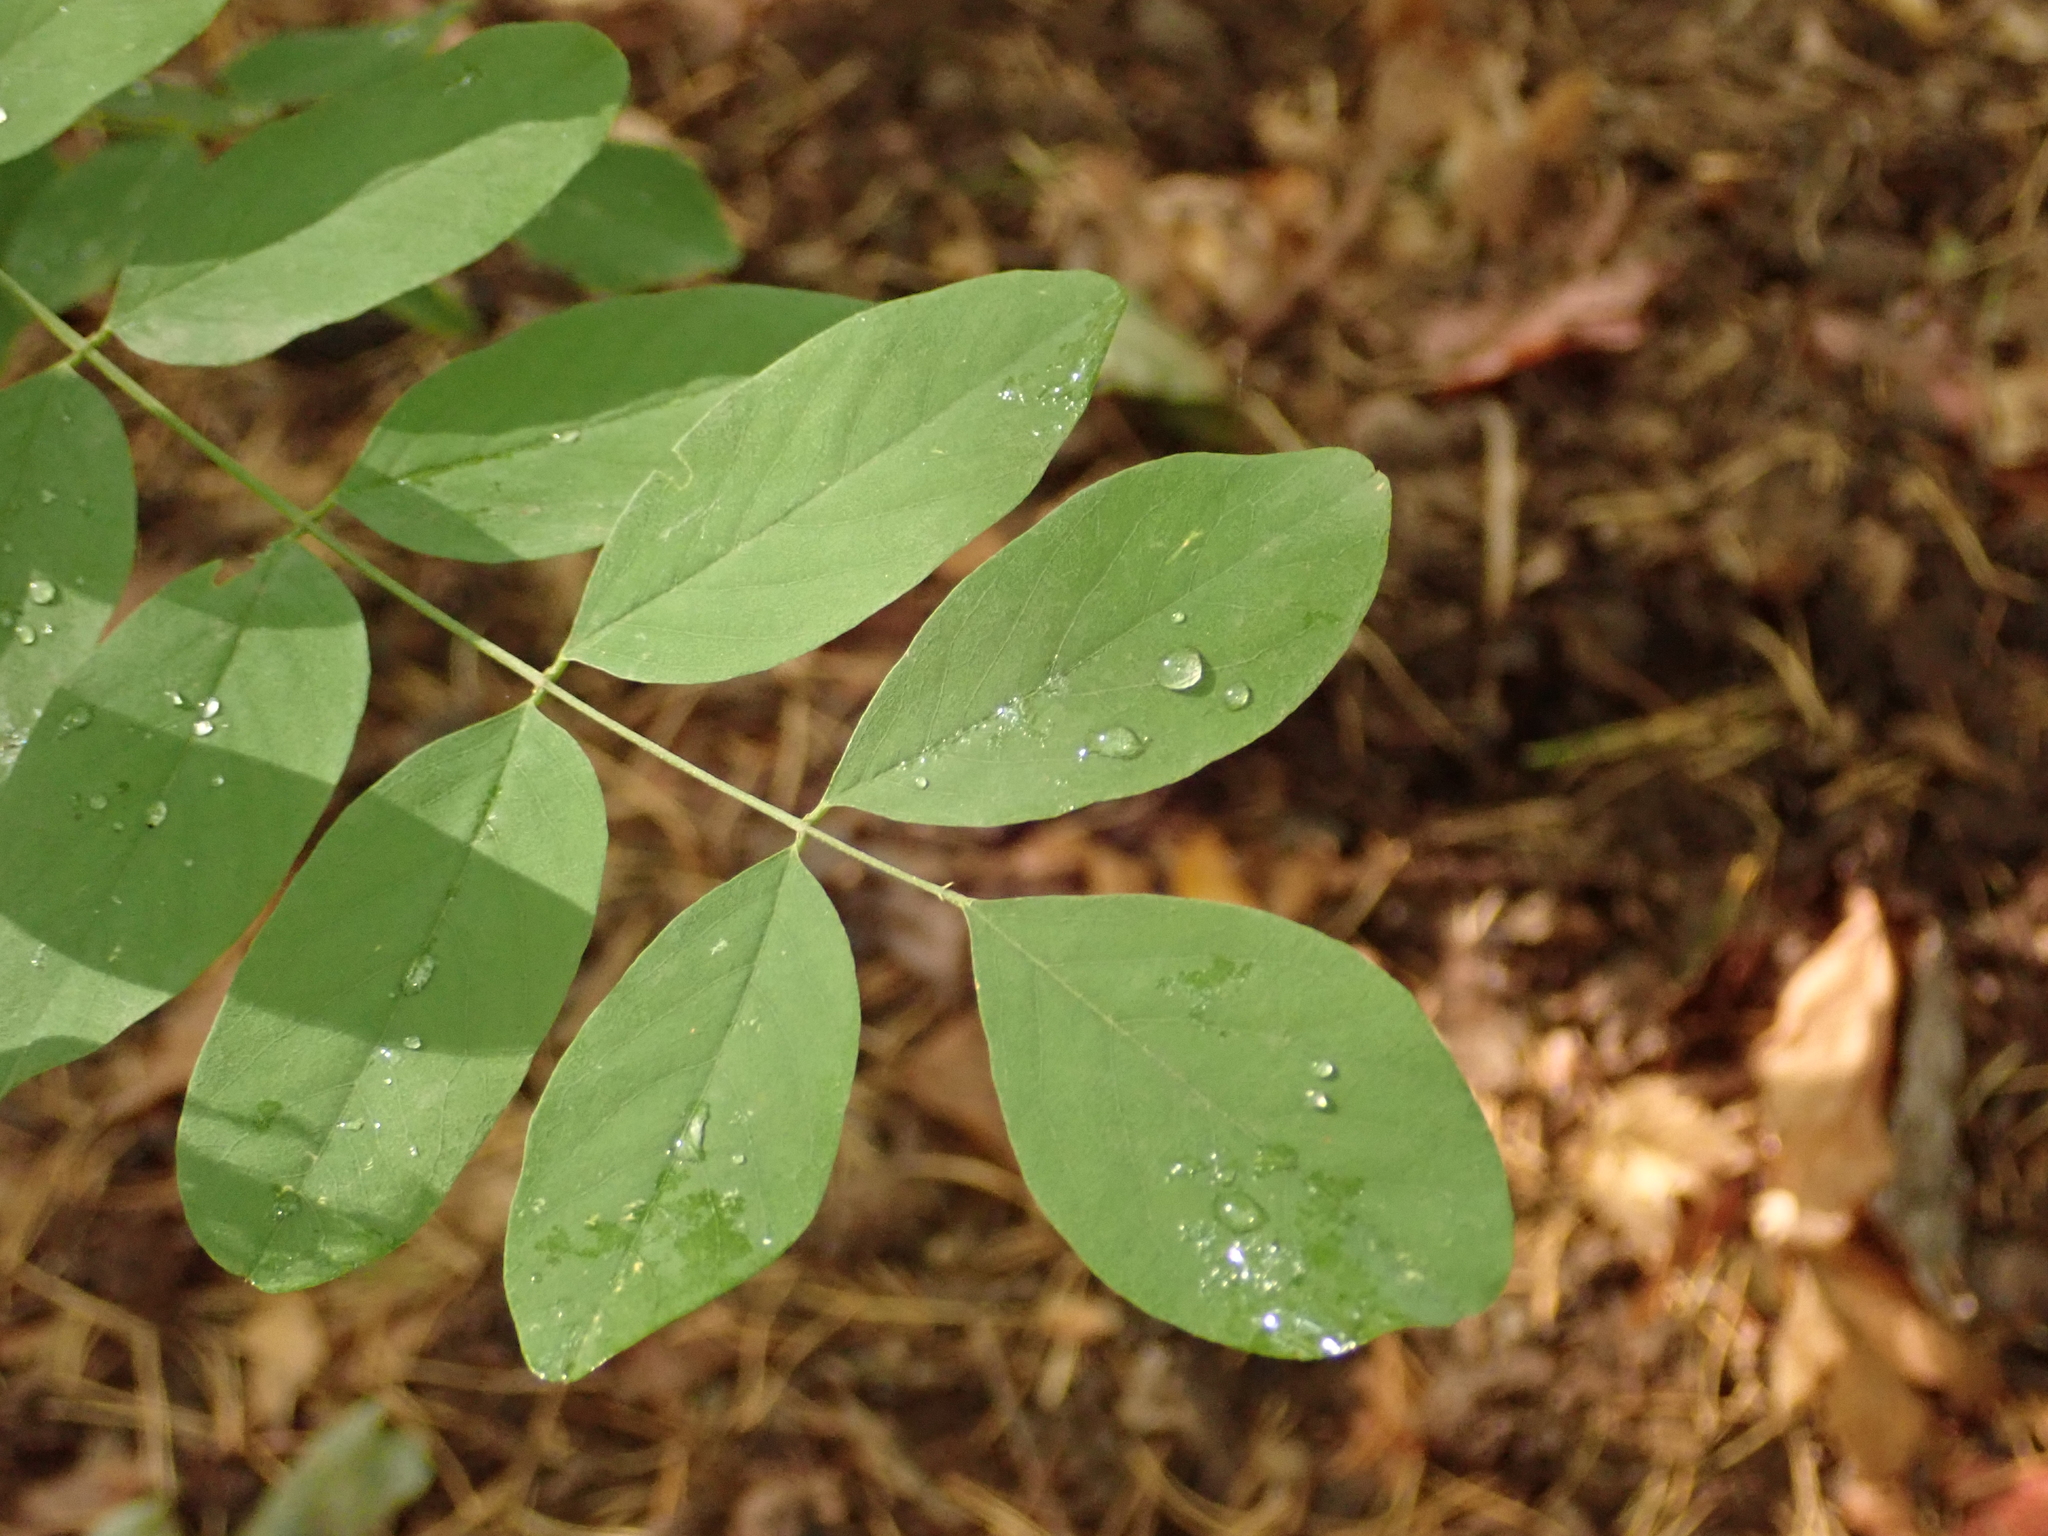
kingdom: Plantae
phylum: Tracheophyta
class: Magnoliopsida
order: Fabales
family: Fabaceae
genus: Robinia
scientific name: Robinia pseudoacacia
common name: Black locust
